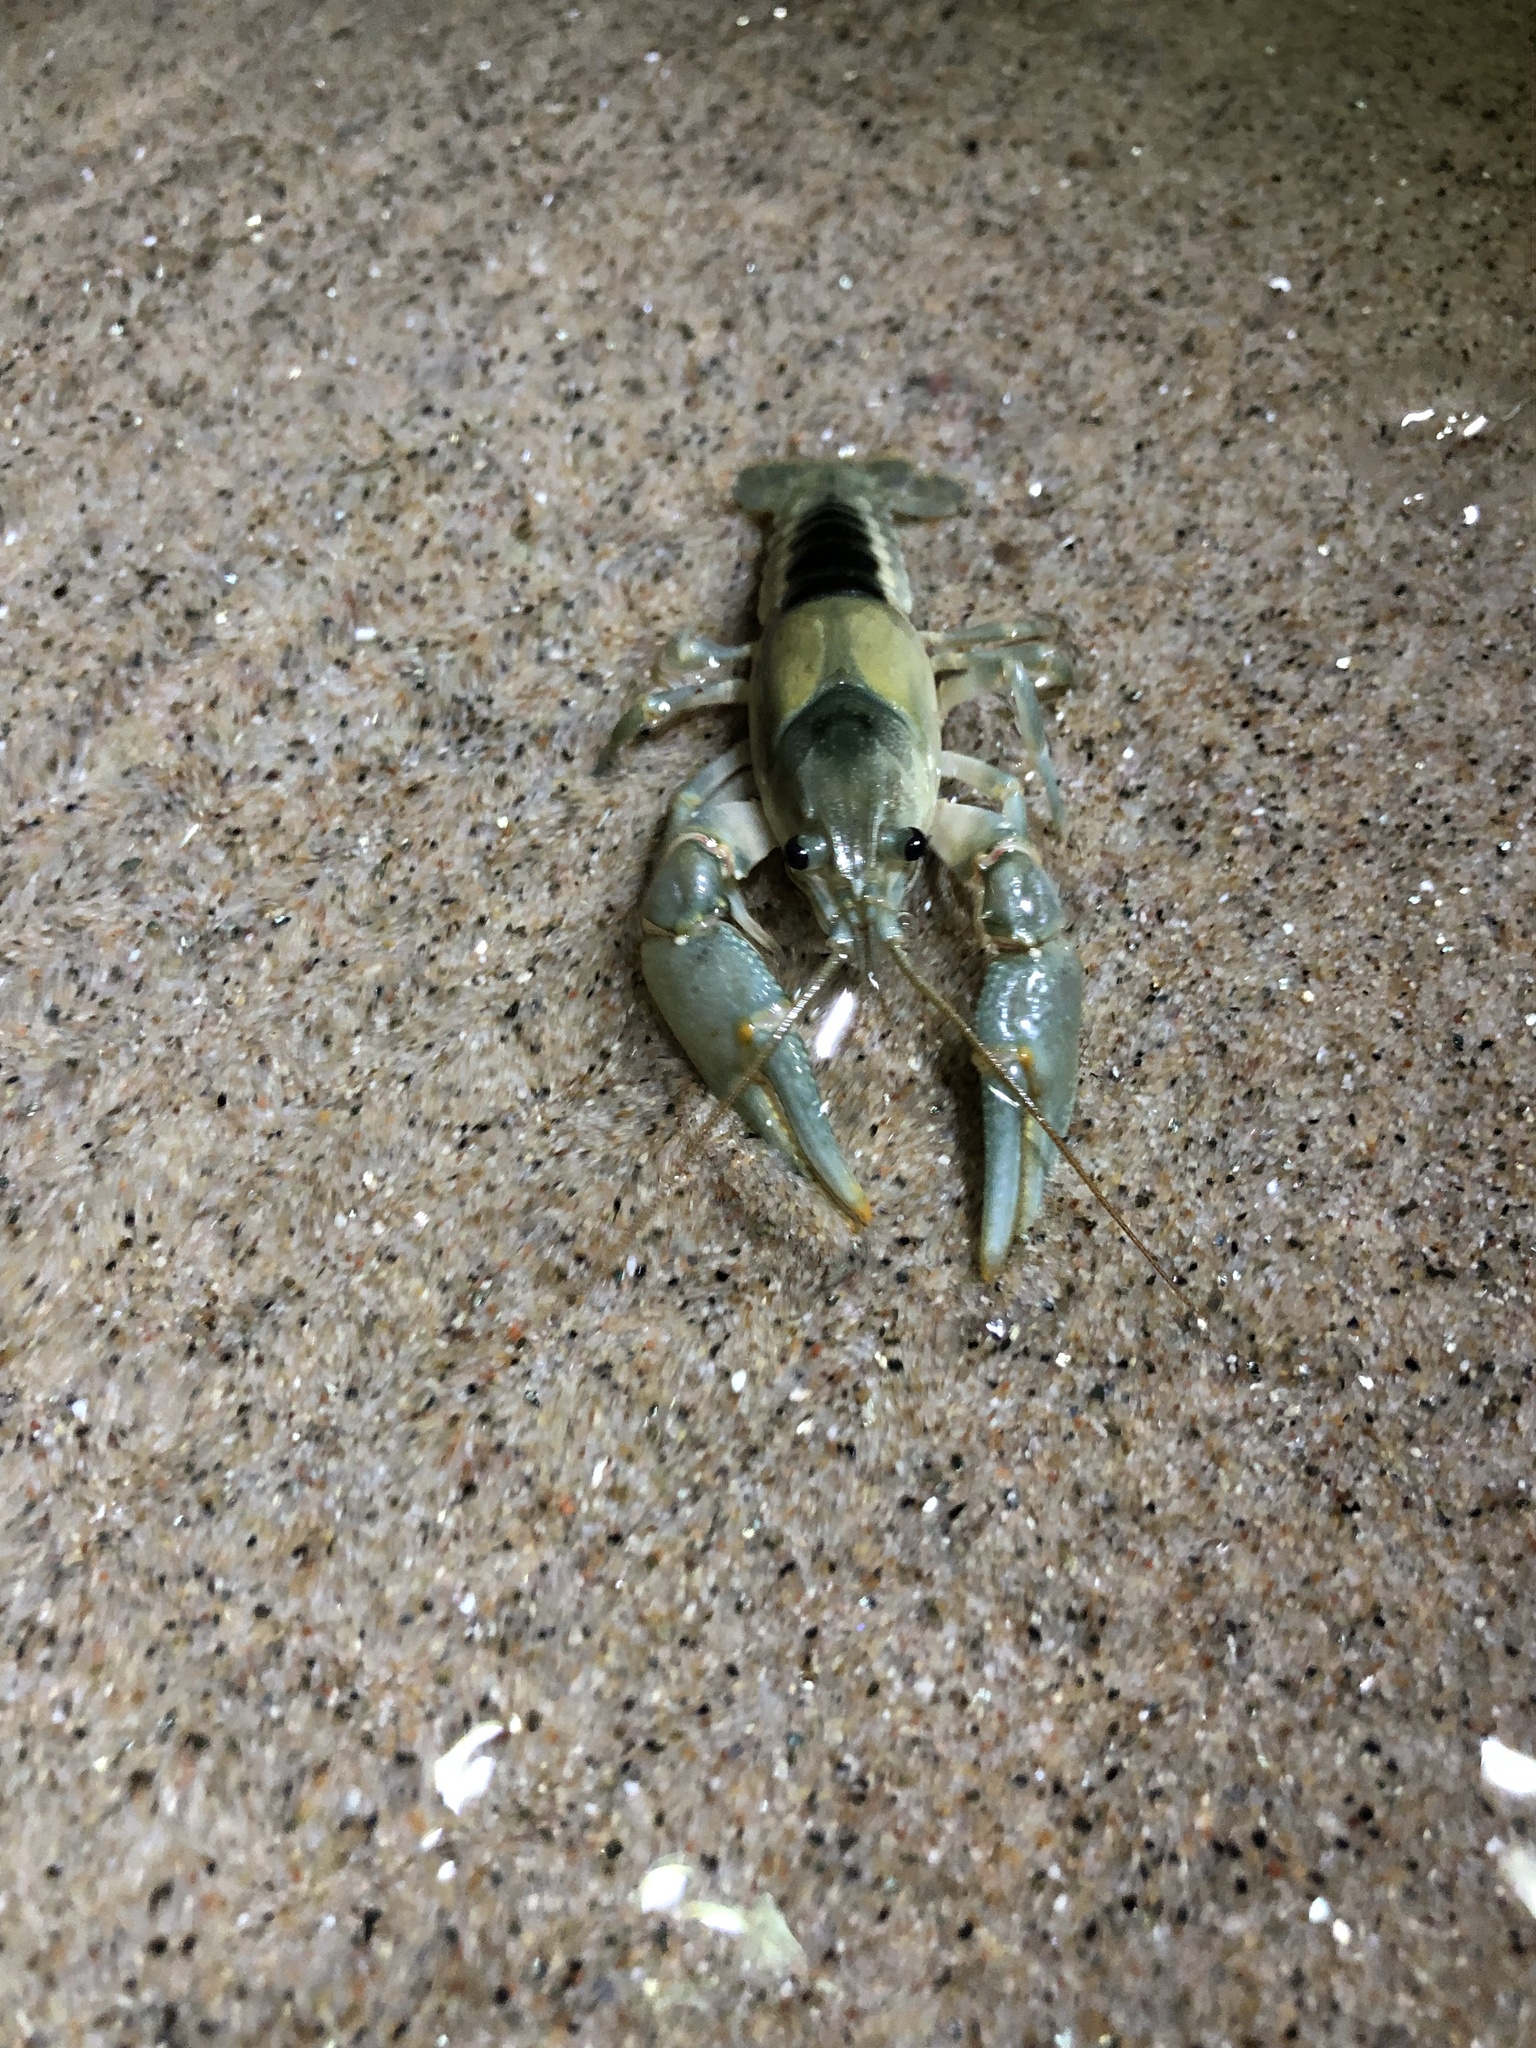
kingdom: Animalia
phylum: Arthropoda
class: Malacostraca
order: Decapoda
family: Cambaridae
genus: Faxonius
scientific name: Faxonius propinquus
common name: Northern clearwater crayfish
